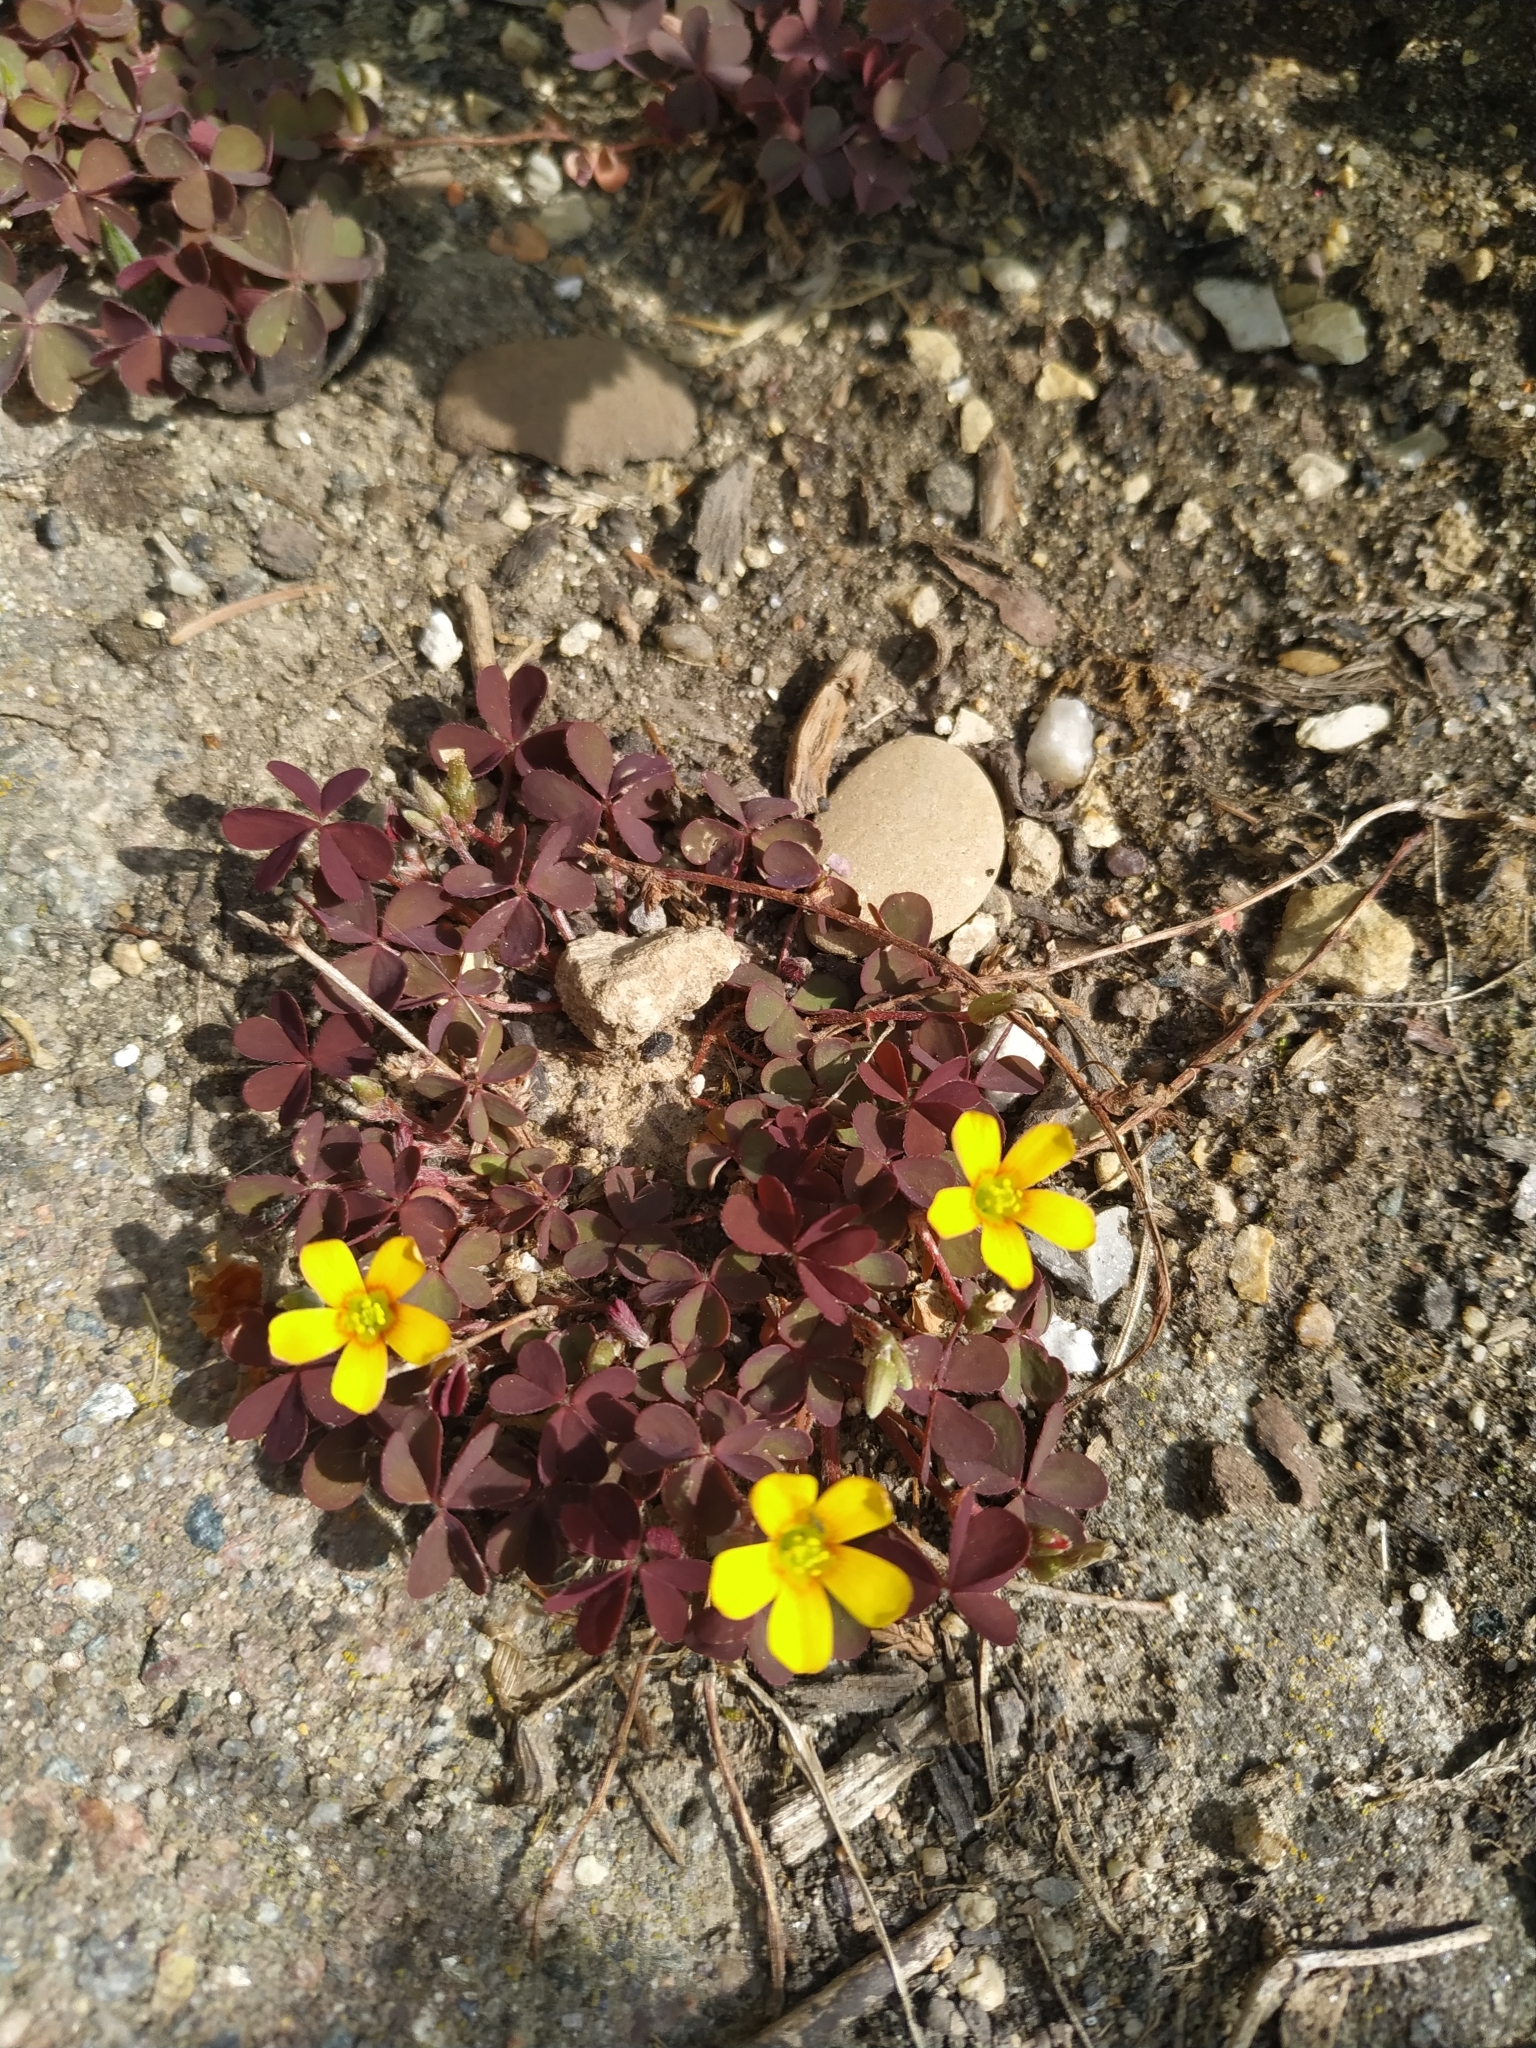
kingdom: Plantae
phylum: Tracheophyta
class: Magnoliopsida
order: Oxalidales
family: Oxalidaceae
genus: Oxalis
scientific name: Oxalis corniculata
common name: Procumbent yellow-sorrel
